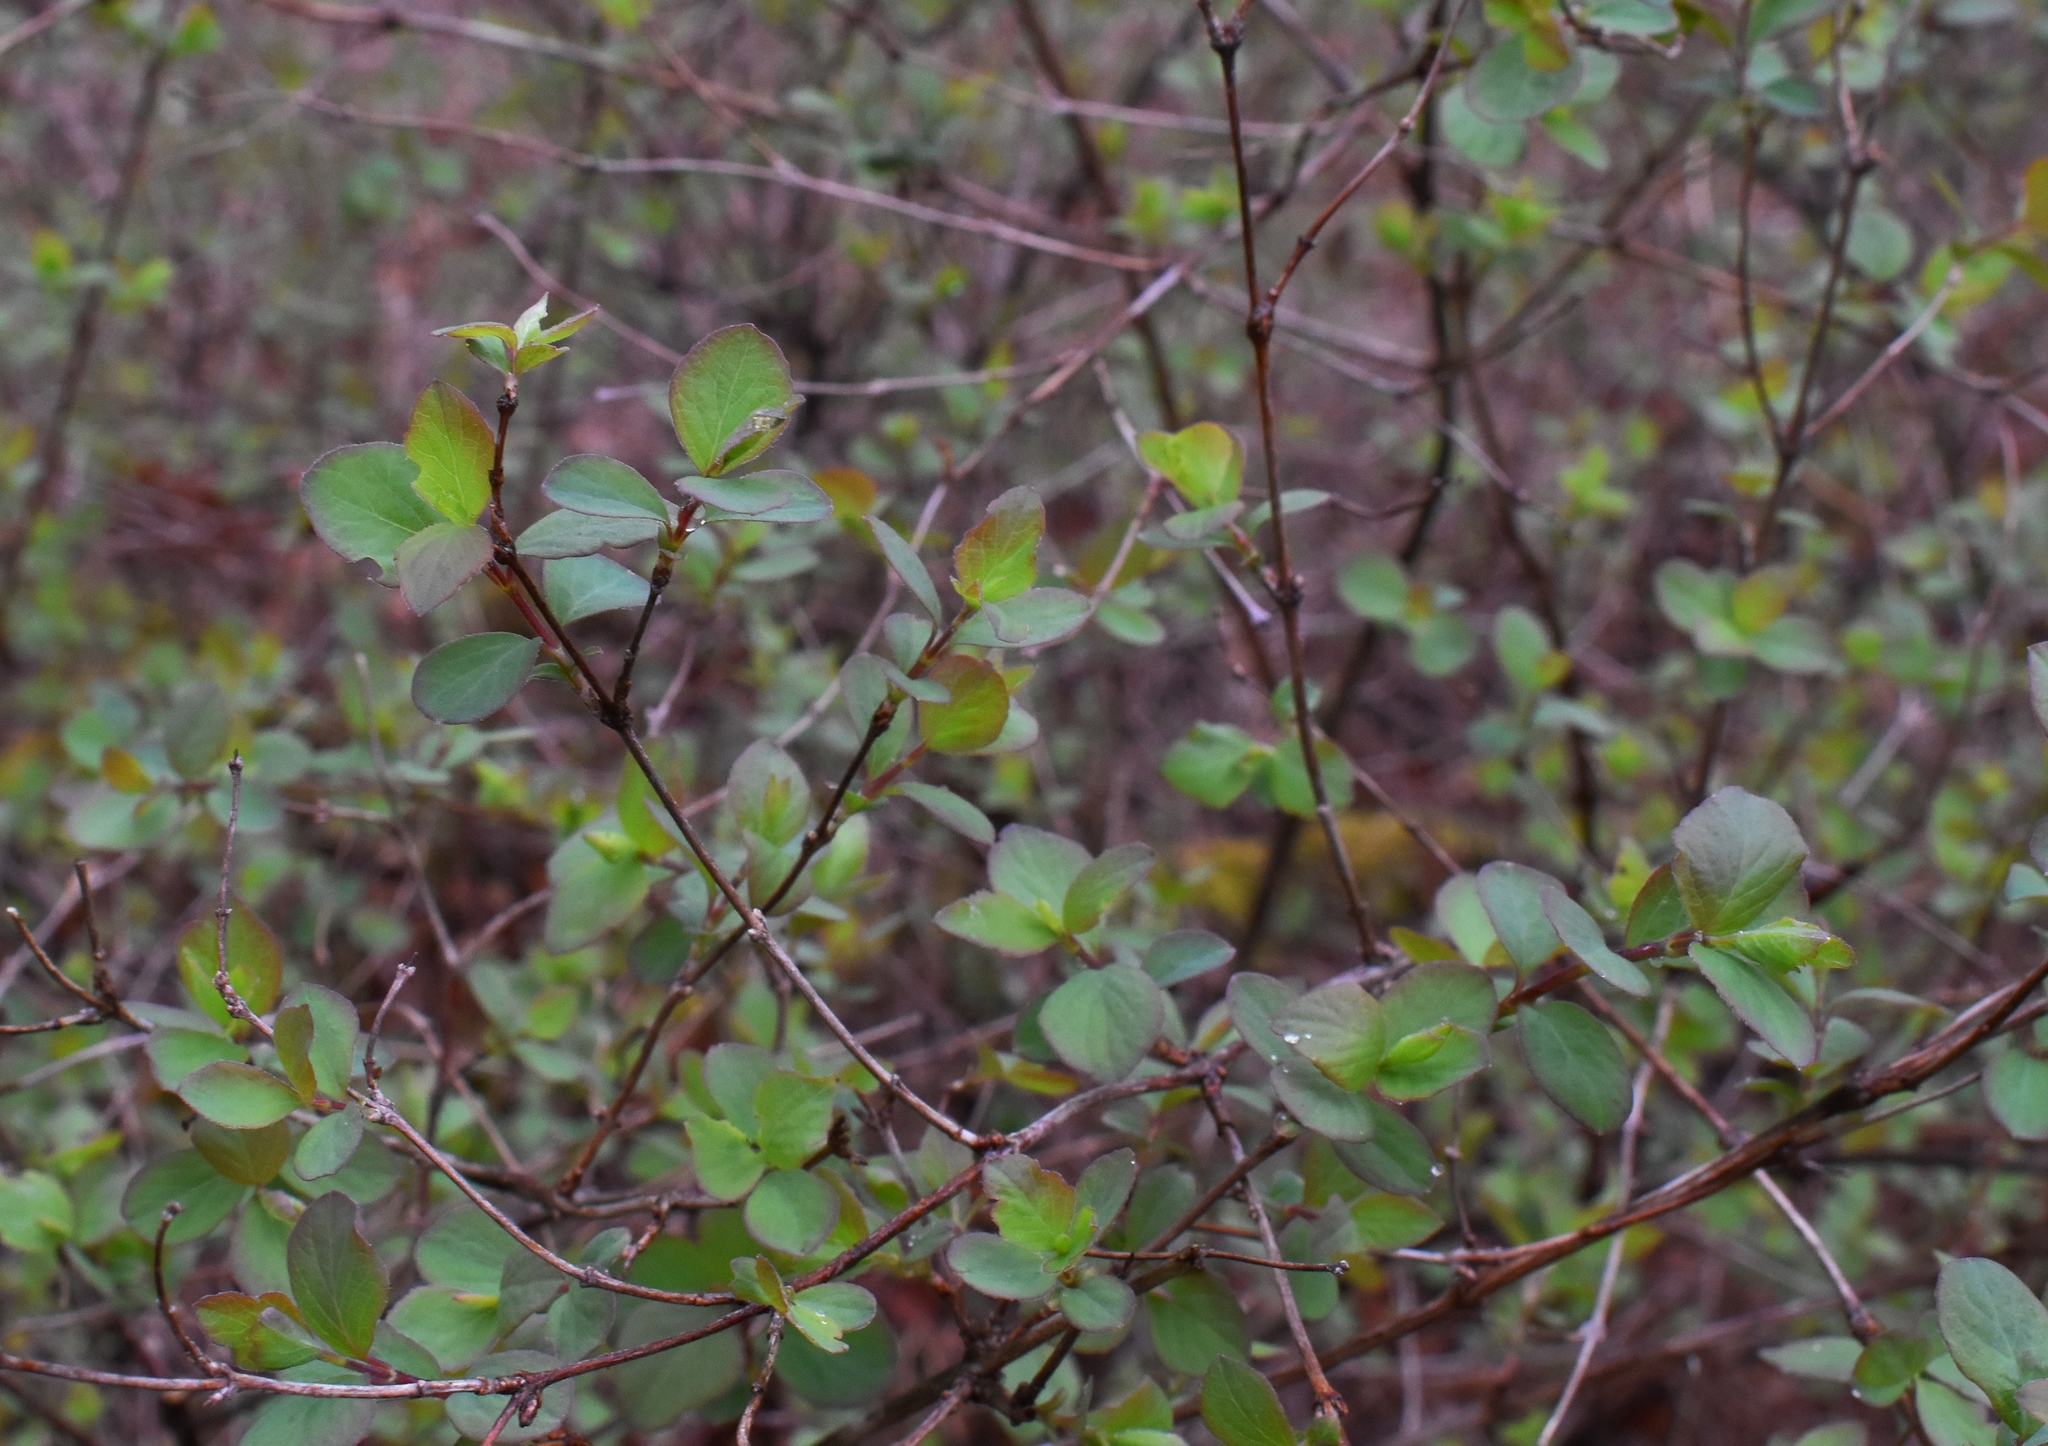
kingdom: Plantae
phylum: Tracheophyta
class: Magnoliopsida
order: Dipsacales
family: Caprifoliaceae
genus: Symphoricarpos
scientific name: Symphoricarpos albus
